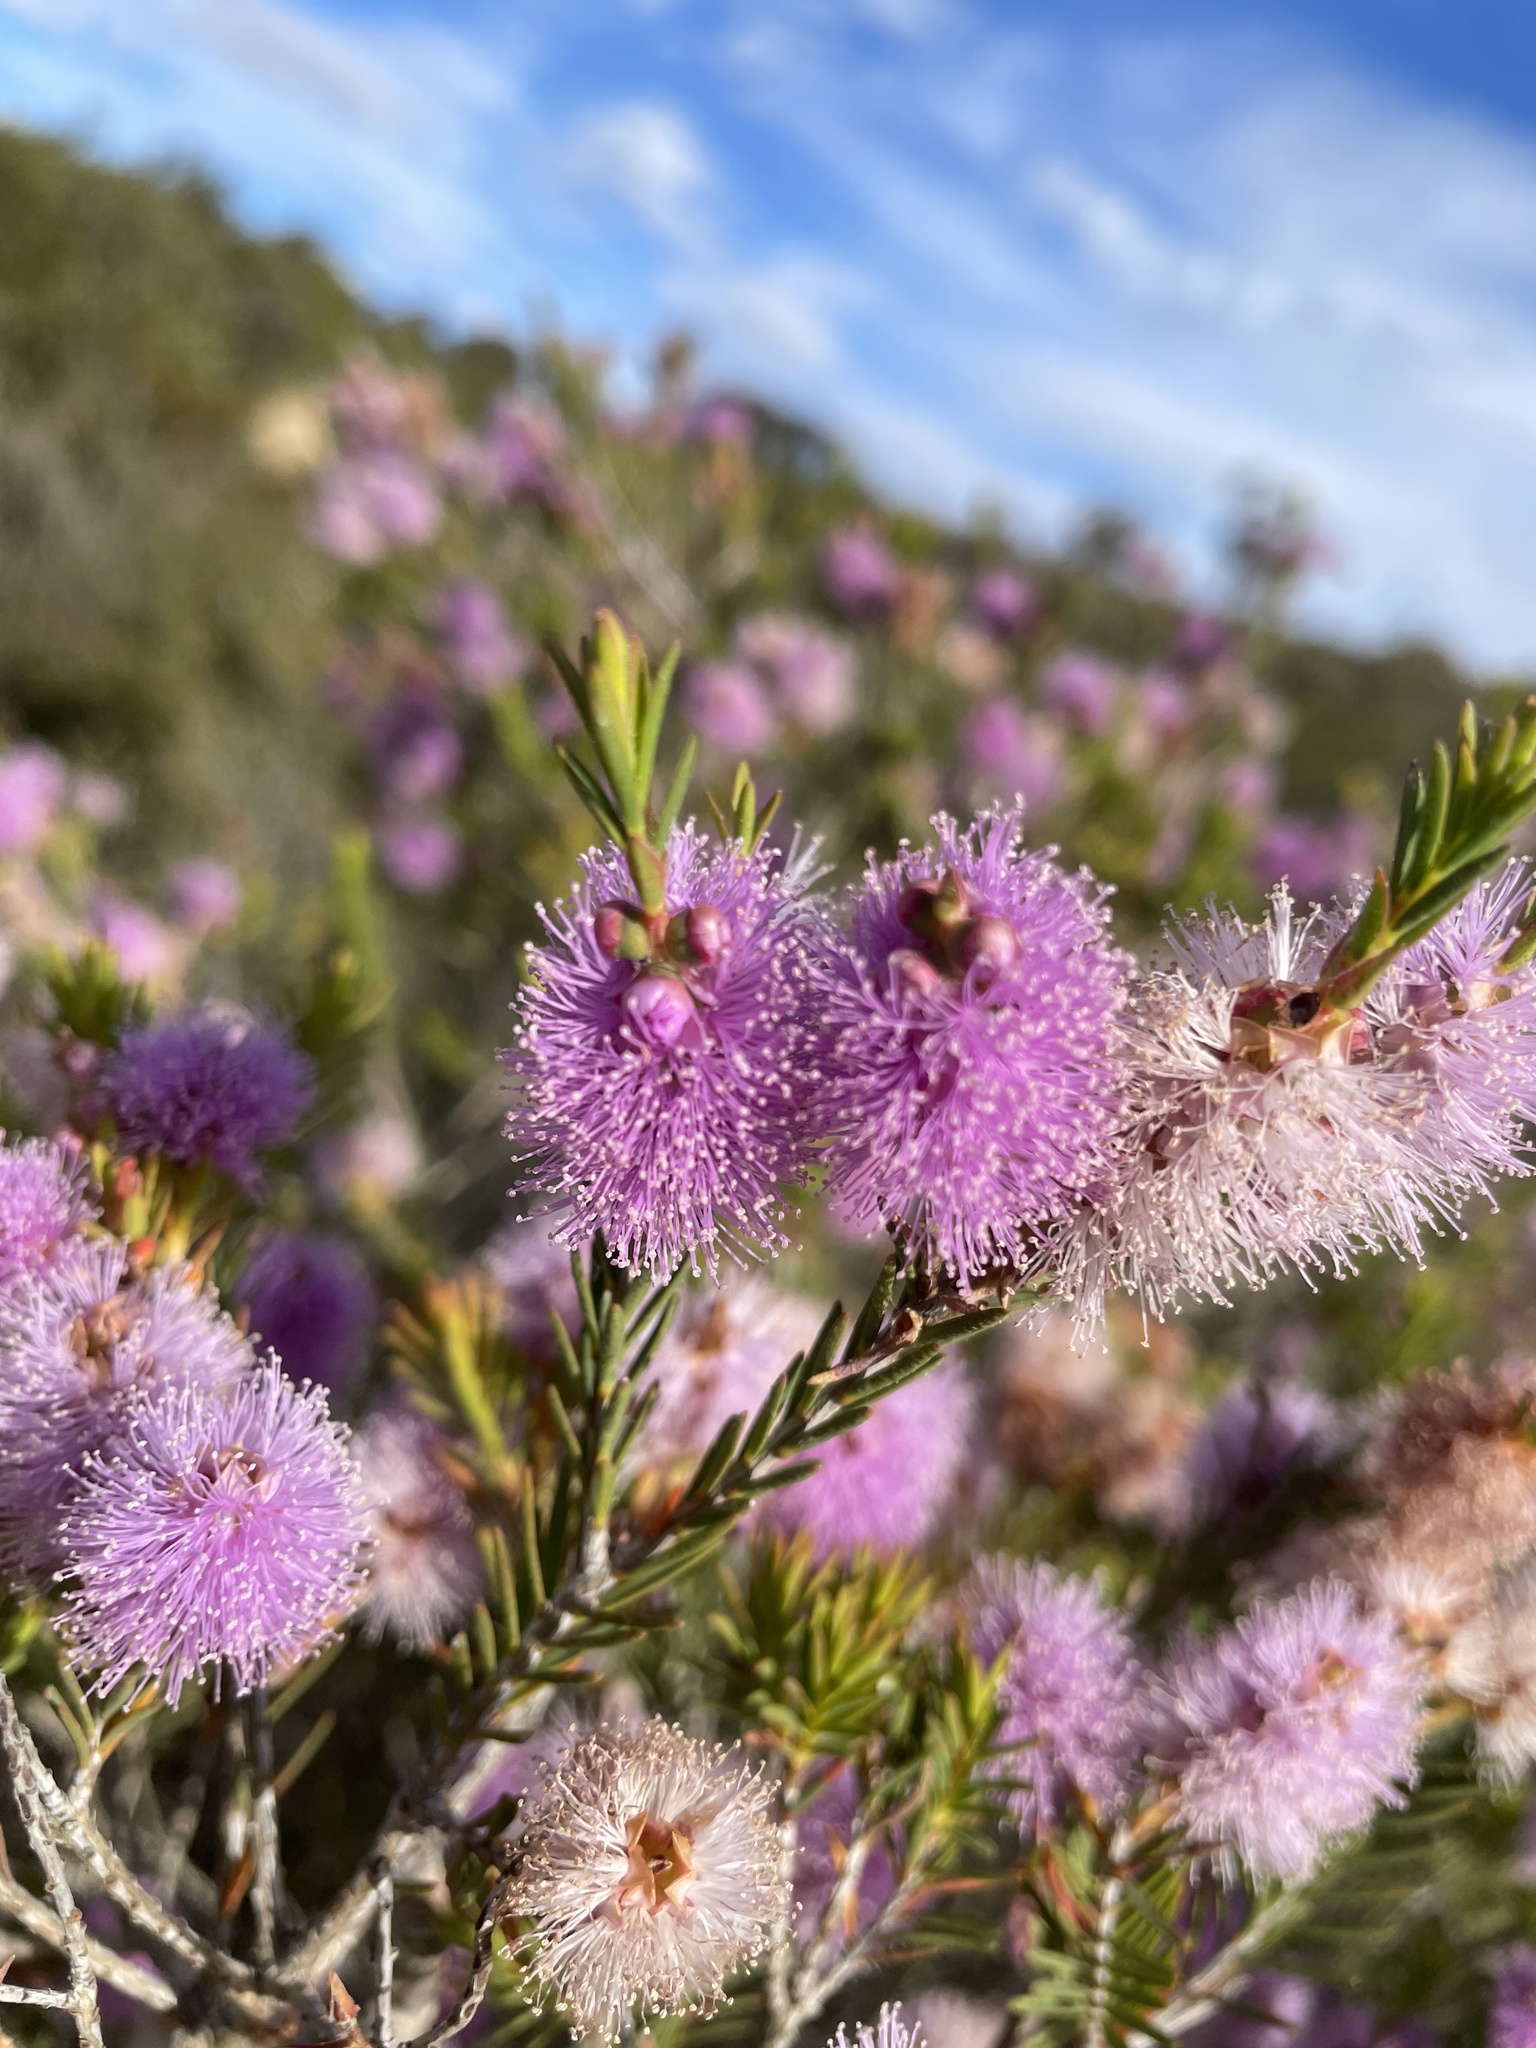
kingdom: Plantae
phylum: Tracheophyta
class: Magnoliopsida
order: Myrtales
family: Myrtaceae
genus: Melaleuca
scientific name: Melaleuca decussata
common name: Cross-leaf honey myrtle
